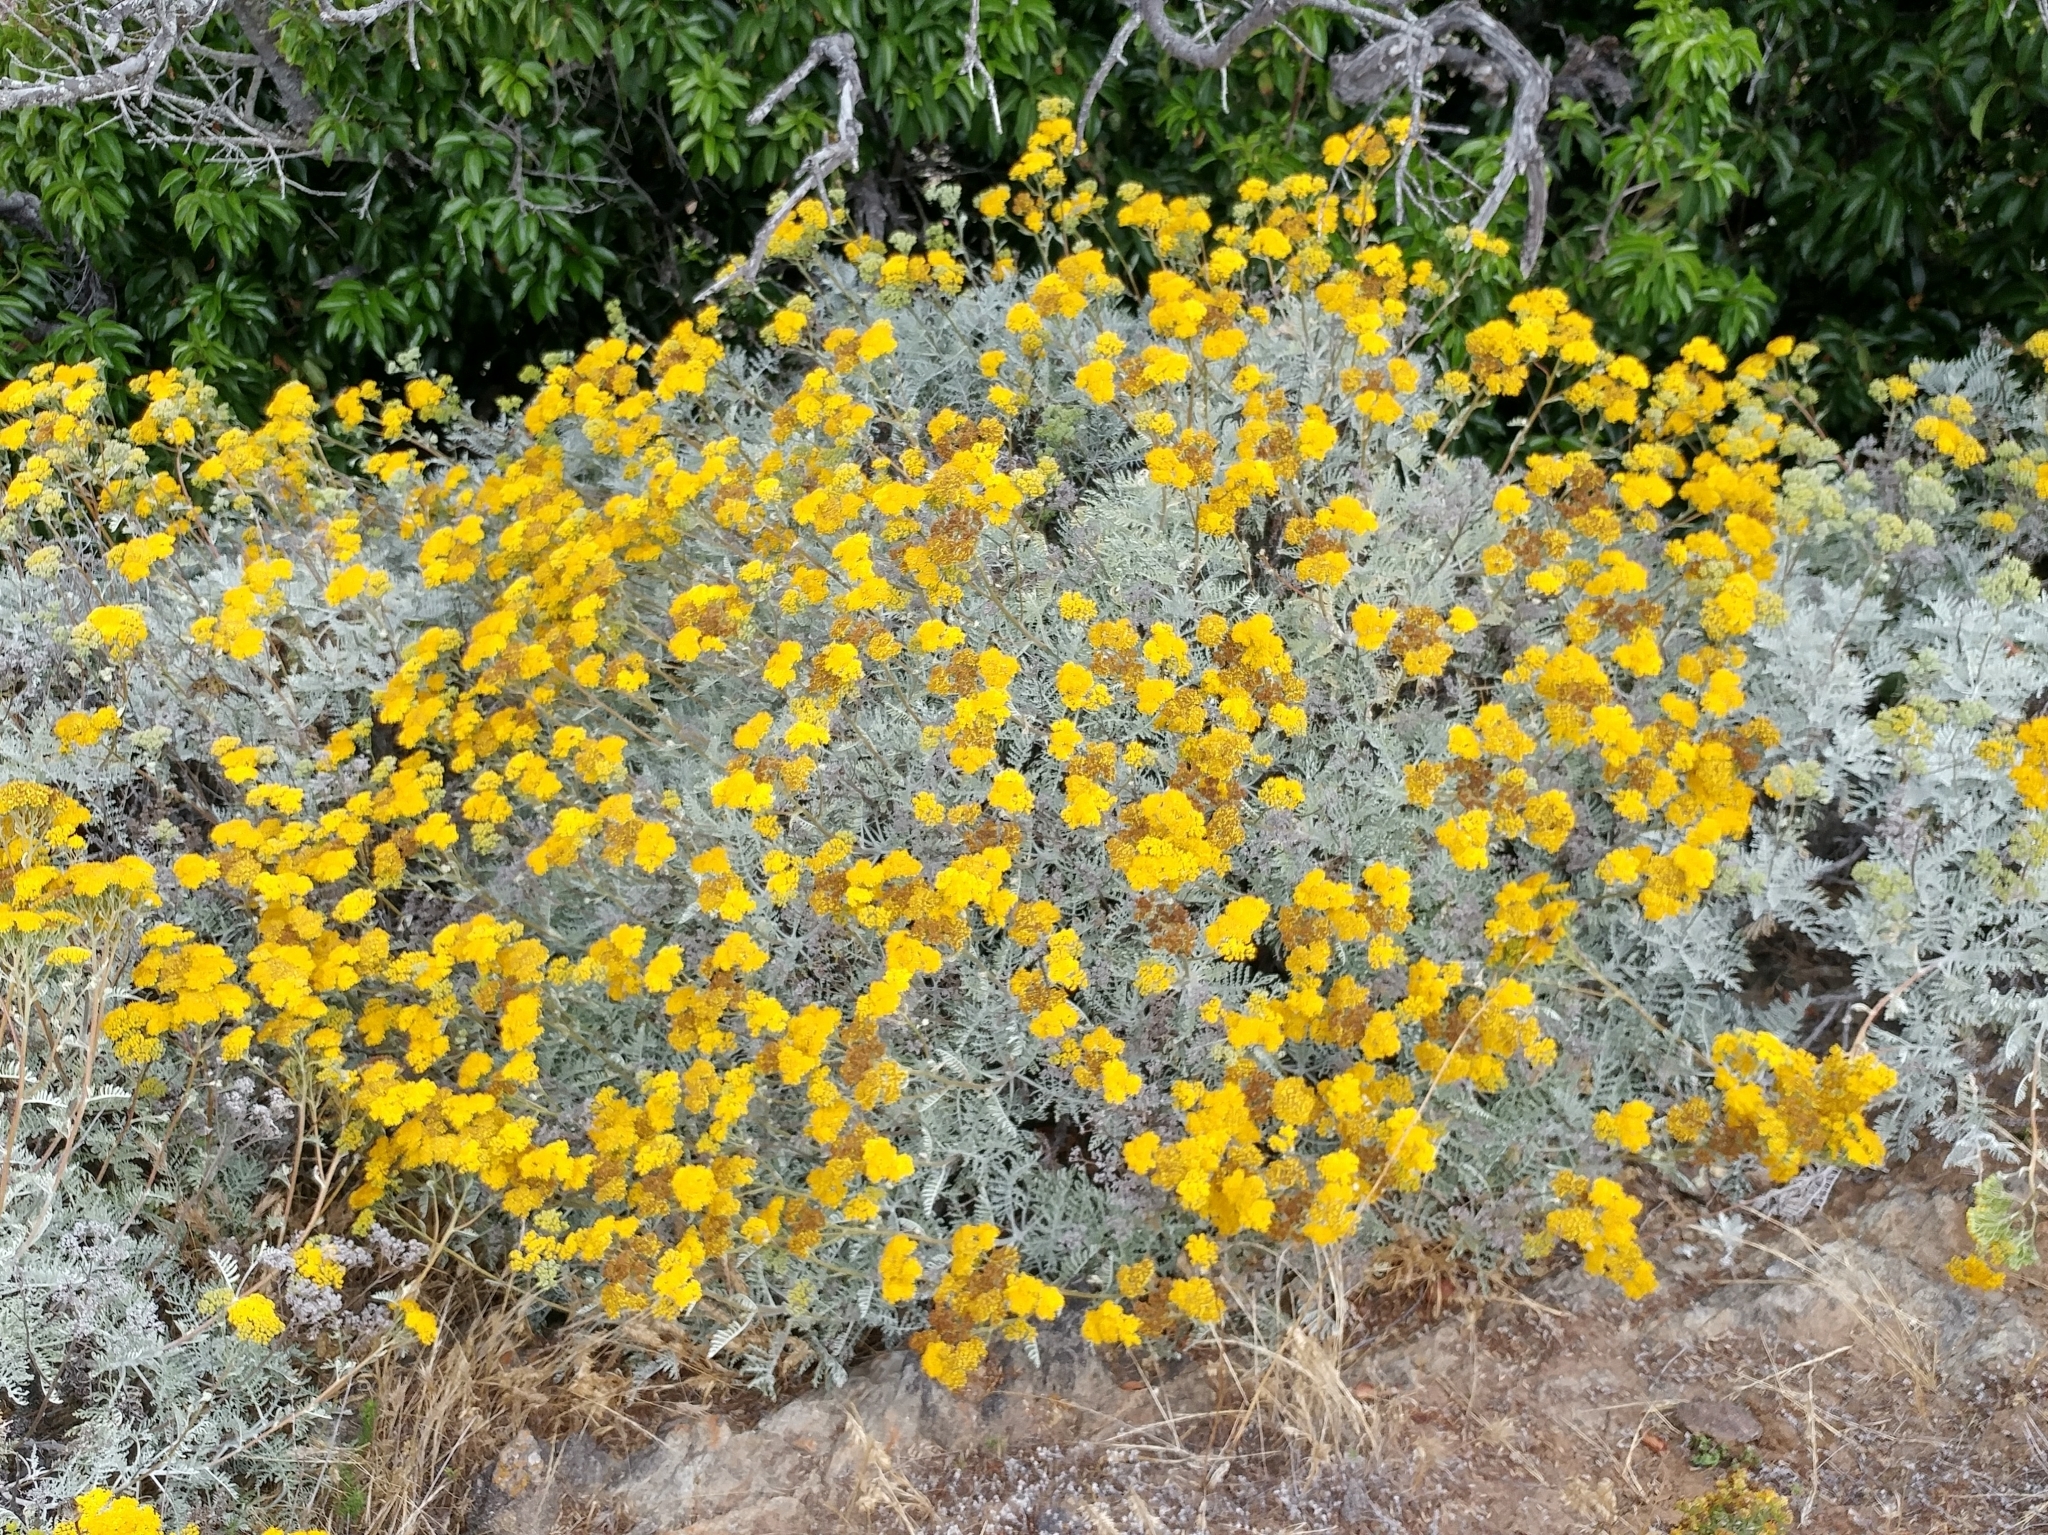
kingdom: Plantae
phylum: Tracheophyta
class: Magnoliopsida
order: Asterales
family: Asteraceae
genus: Constancea
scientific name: Constancea nevinii
